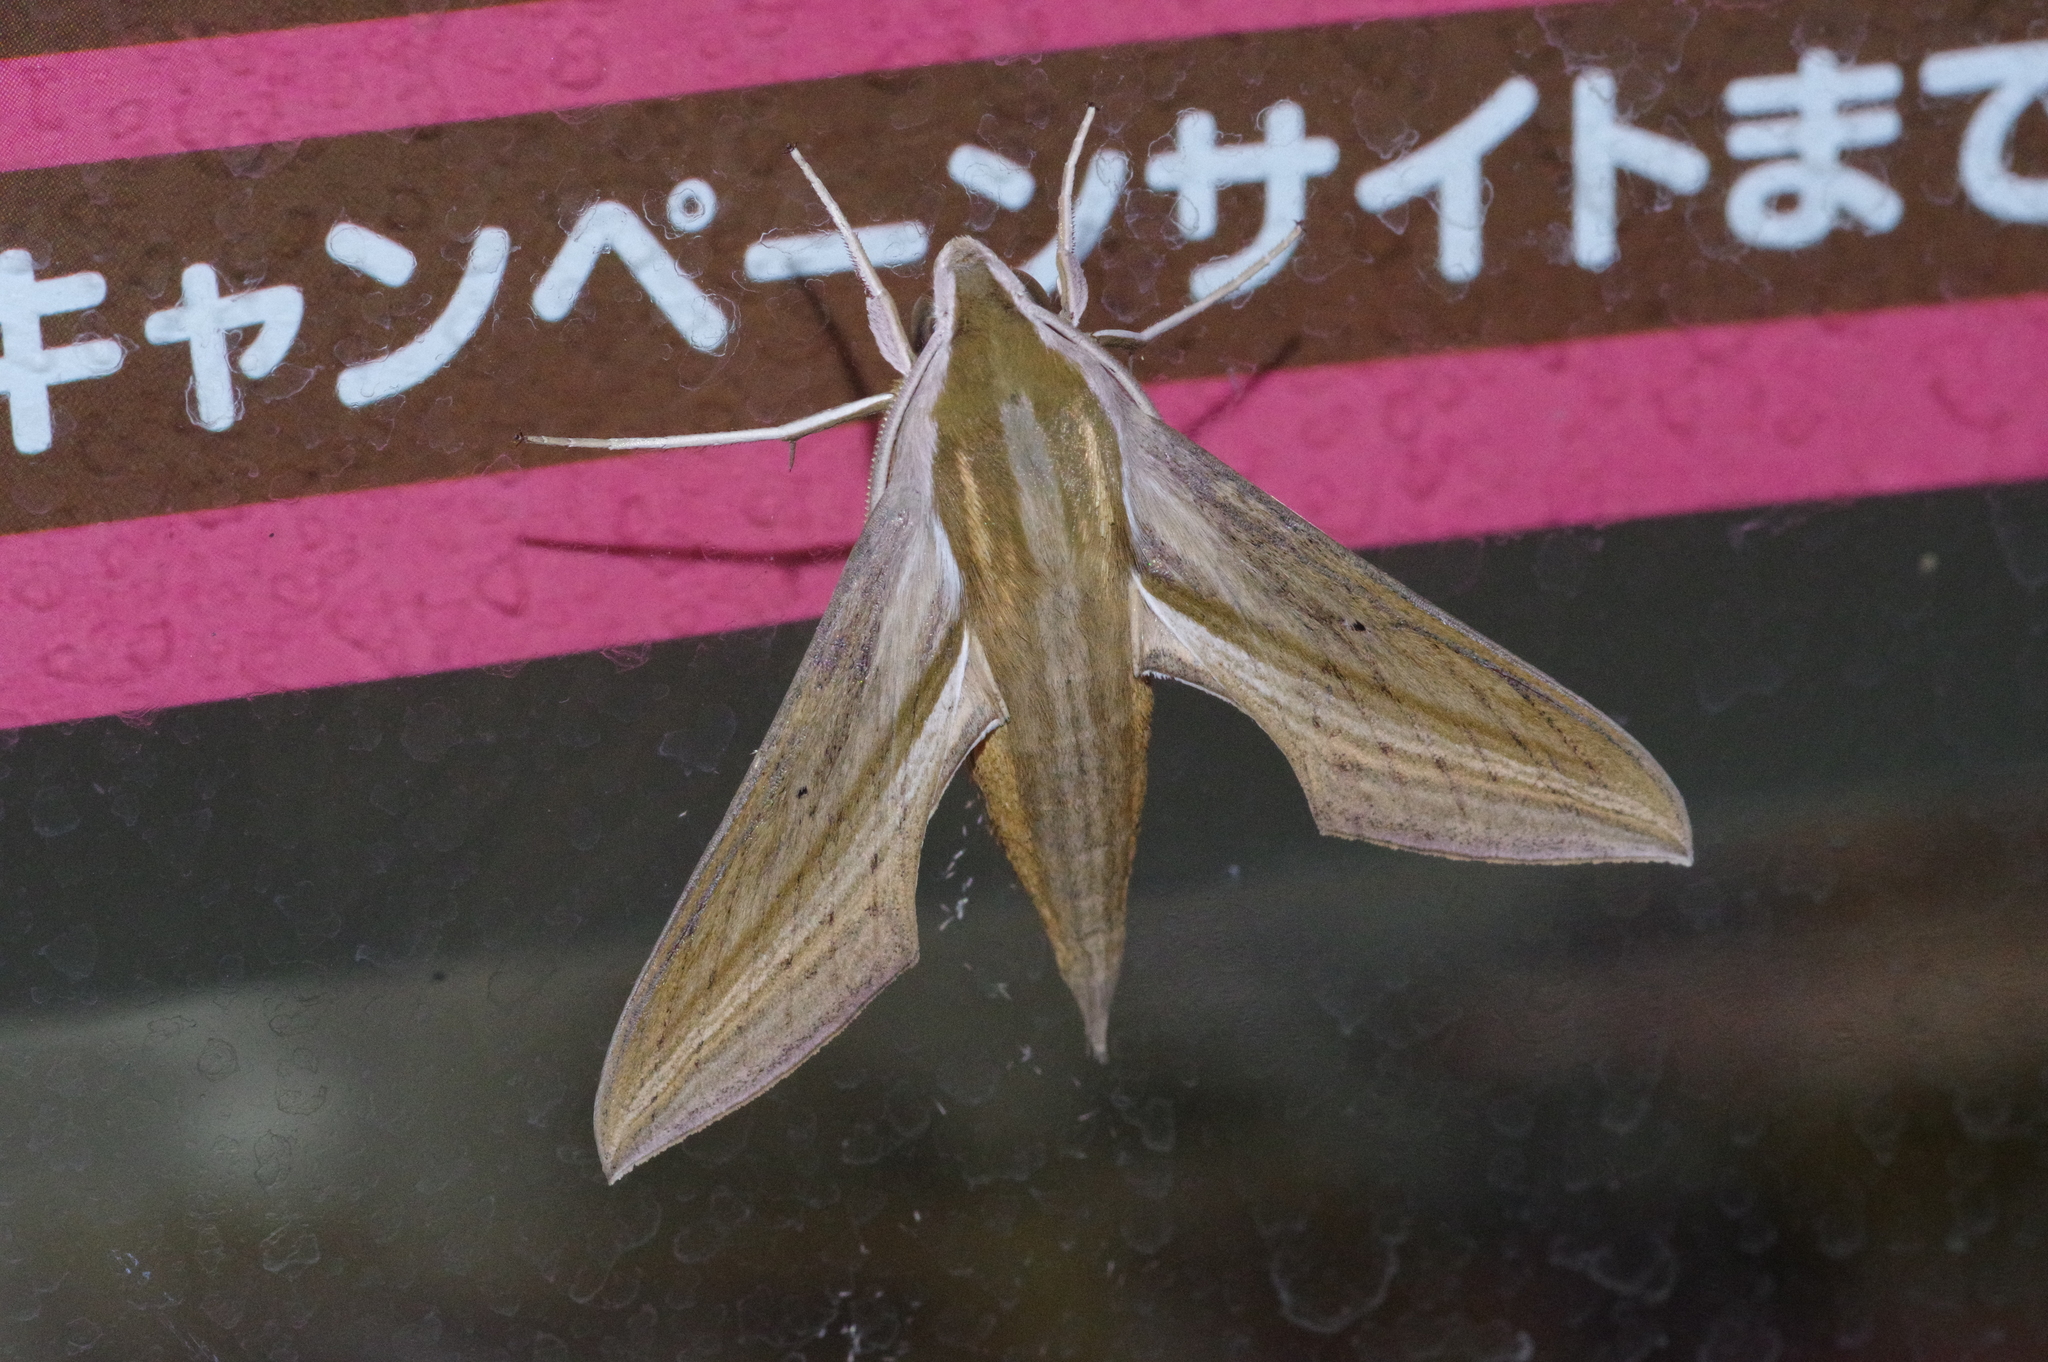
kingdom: Animalia
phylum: Arthropoda
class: Insecta
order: Lepidoptera
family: Sphingidae
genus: Theretra
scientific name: Theretra japonica
